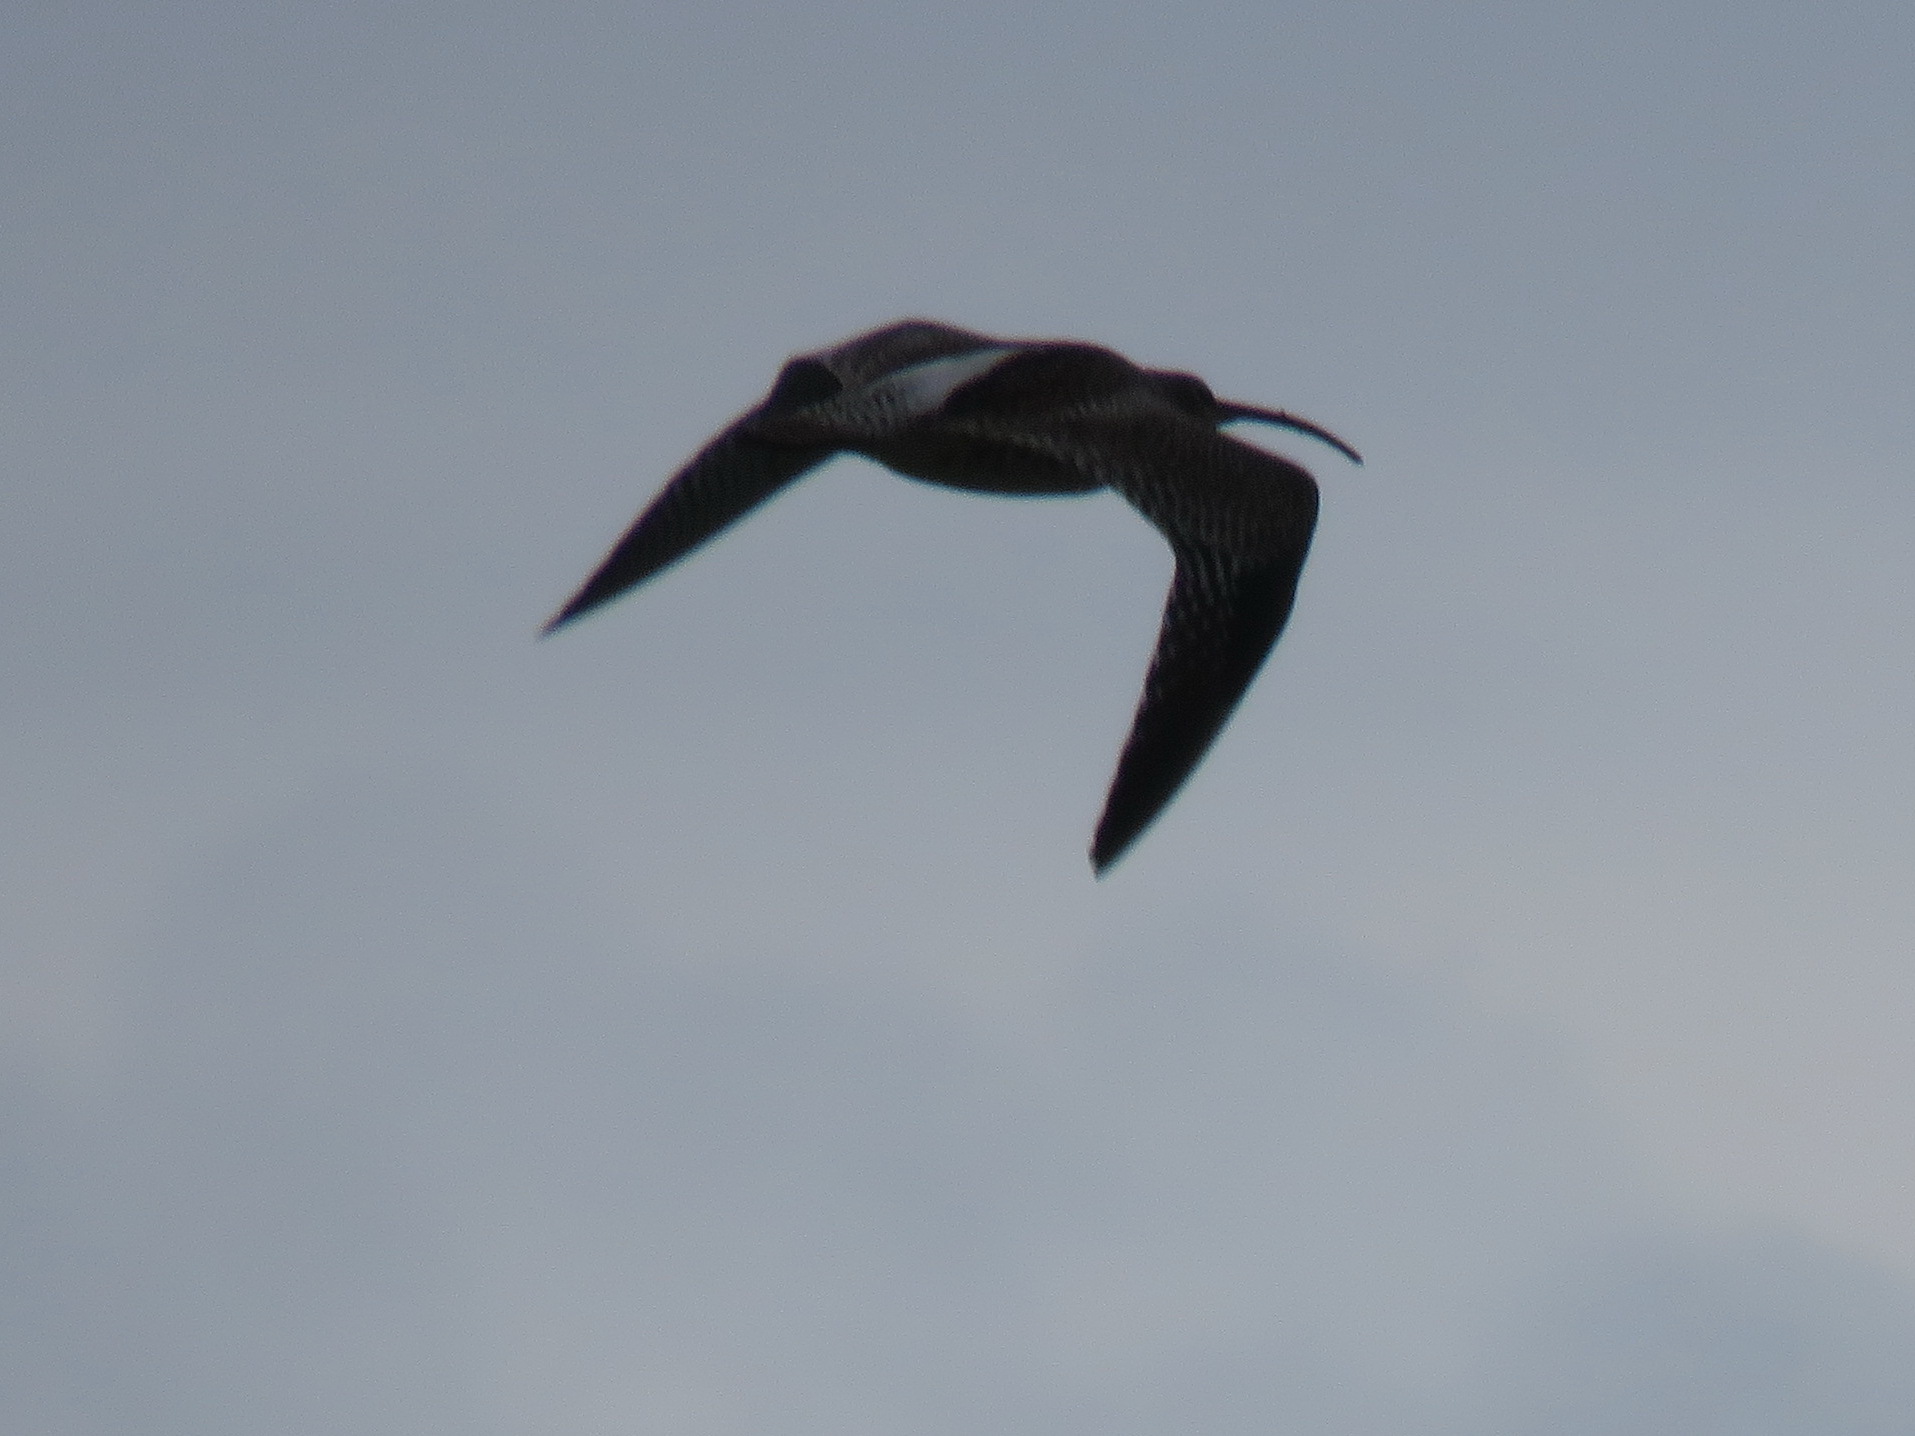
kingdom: Animalia
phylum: Chordata
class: Aves
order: Charadriiformes
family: Scolopacidae
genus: Numenius
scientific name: Numenius arquata
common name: Eurasian curlew
